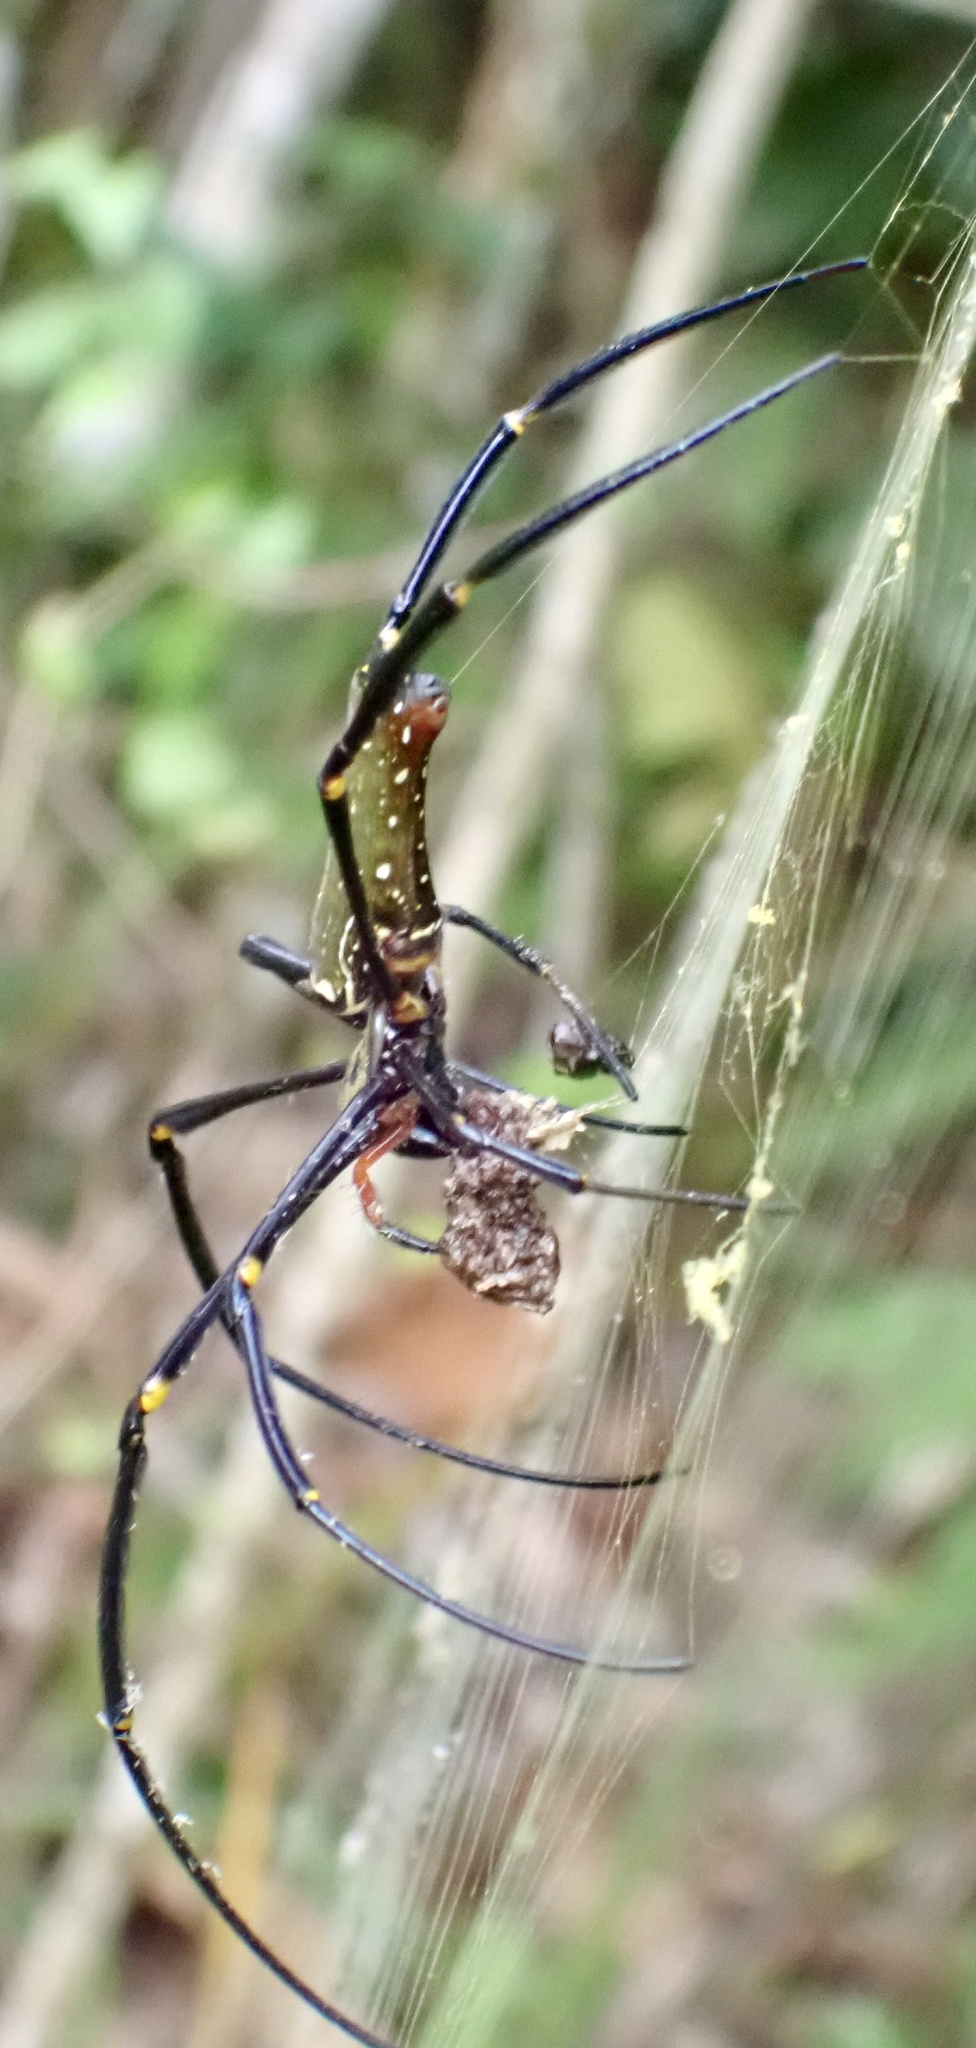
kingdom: Animalia
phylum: Arthropoda
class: Arachnida
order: Araneae
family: Araneidae
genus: Nephila
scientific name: Nephila pilipes
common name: Giant golden orb weaver
